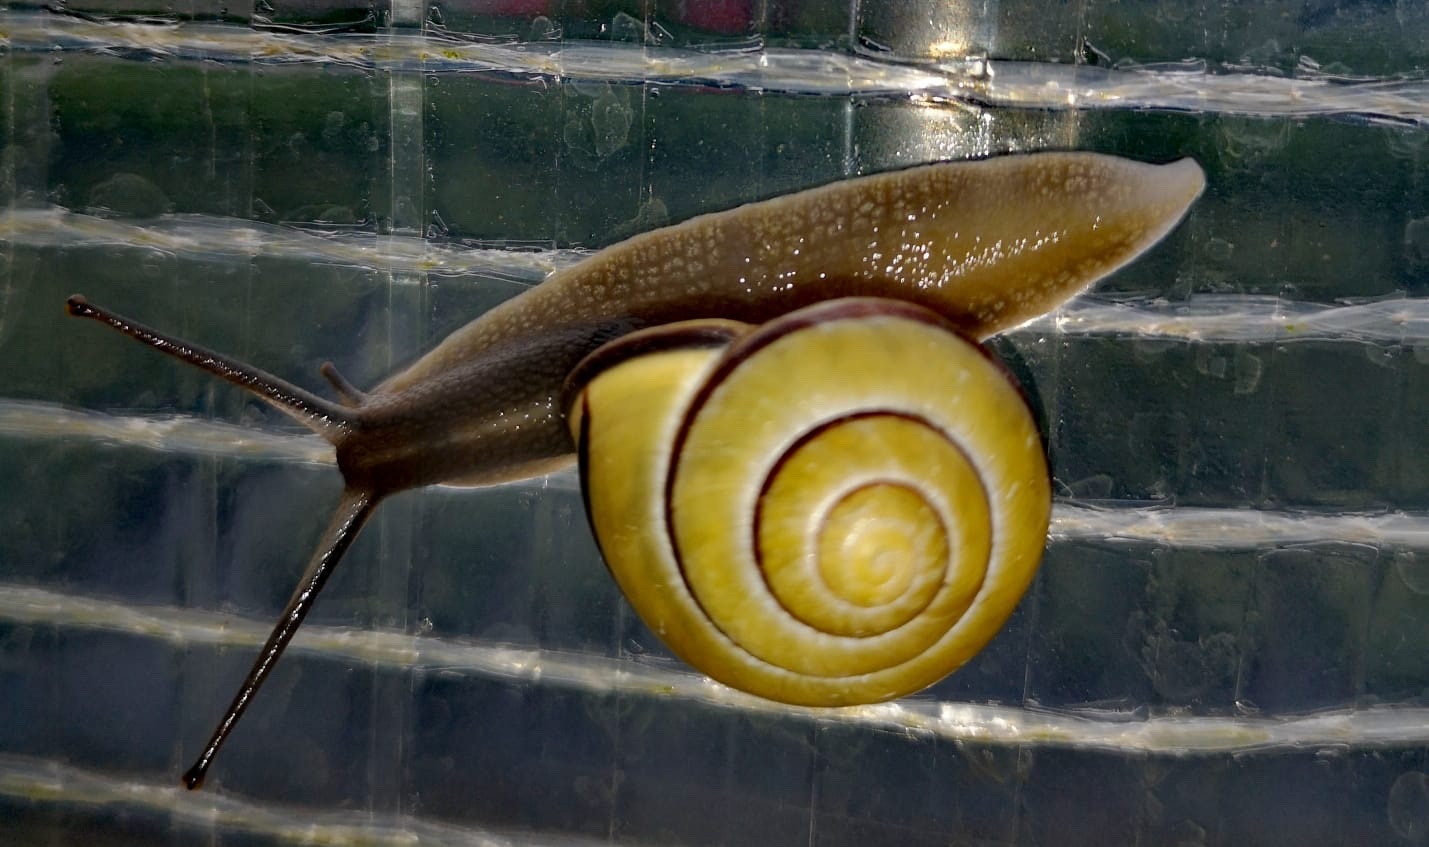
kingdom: Animalia
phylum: Mollusca
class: Gastropoda
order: Stylommatophora
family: Helicidae
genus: Cepaea
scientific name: Cepaea nemoralis
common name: Grovesnail
